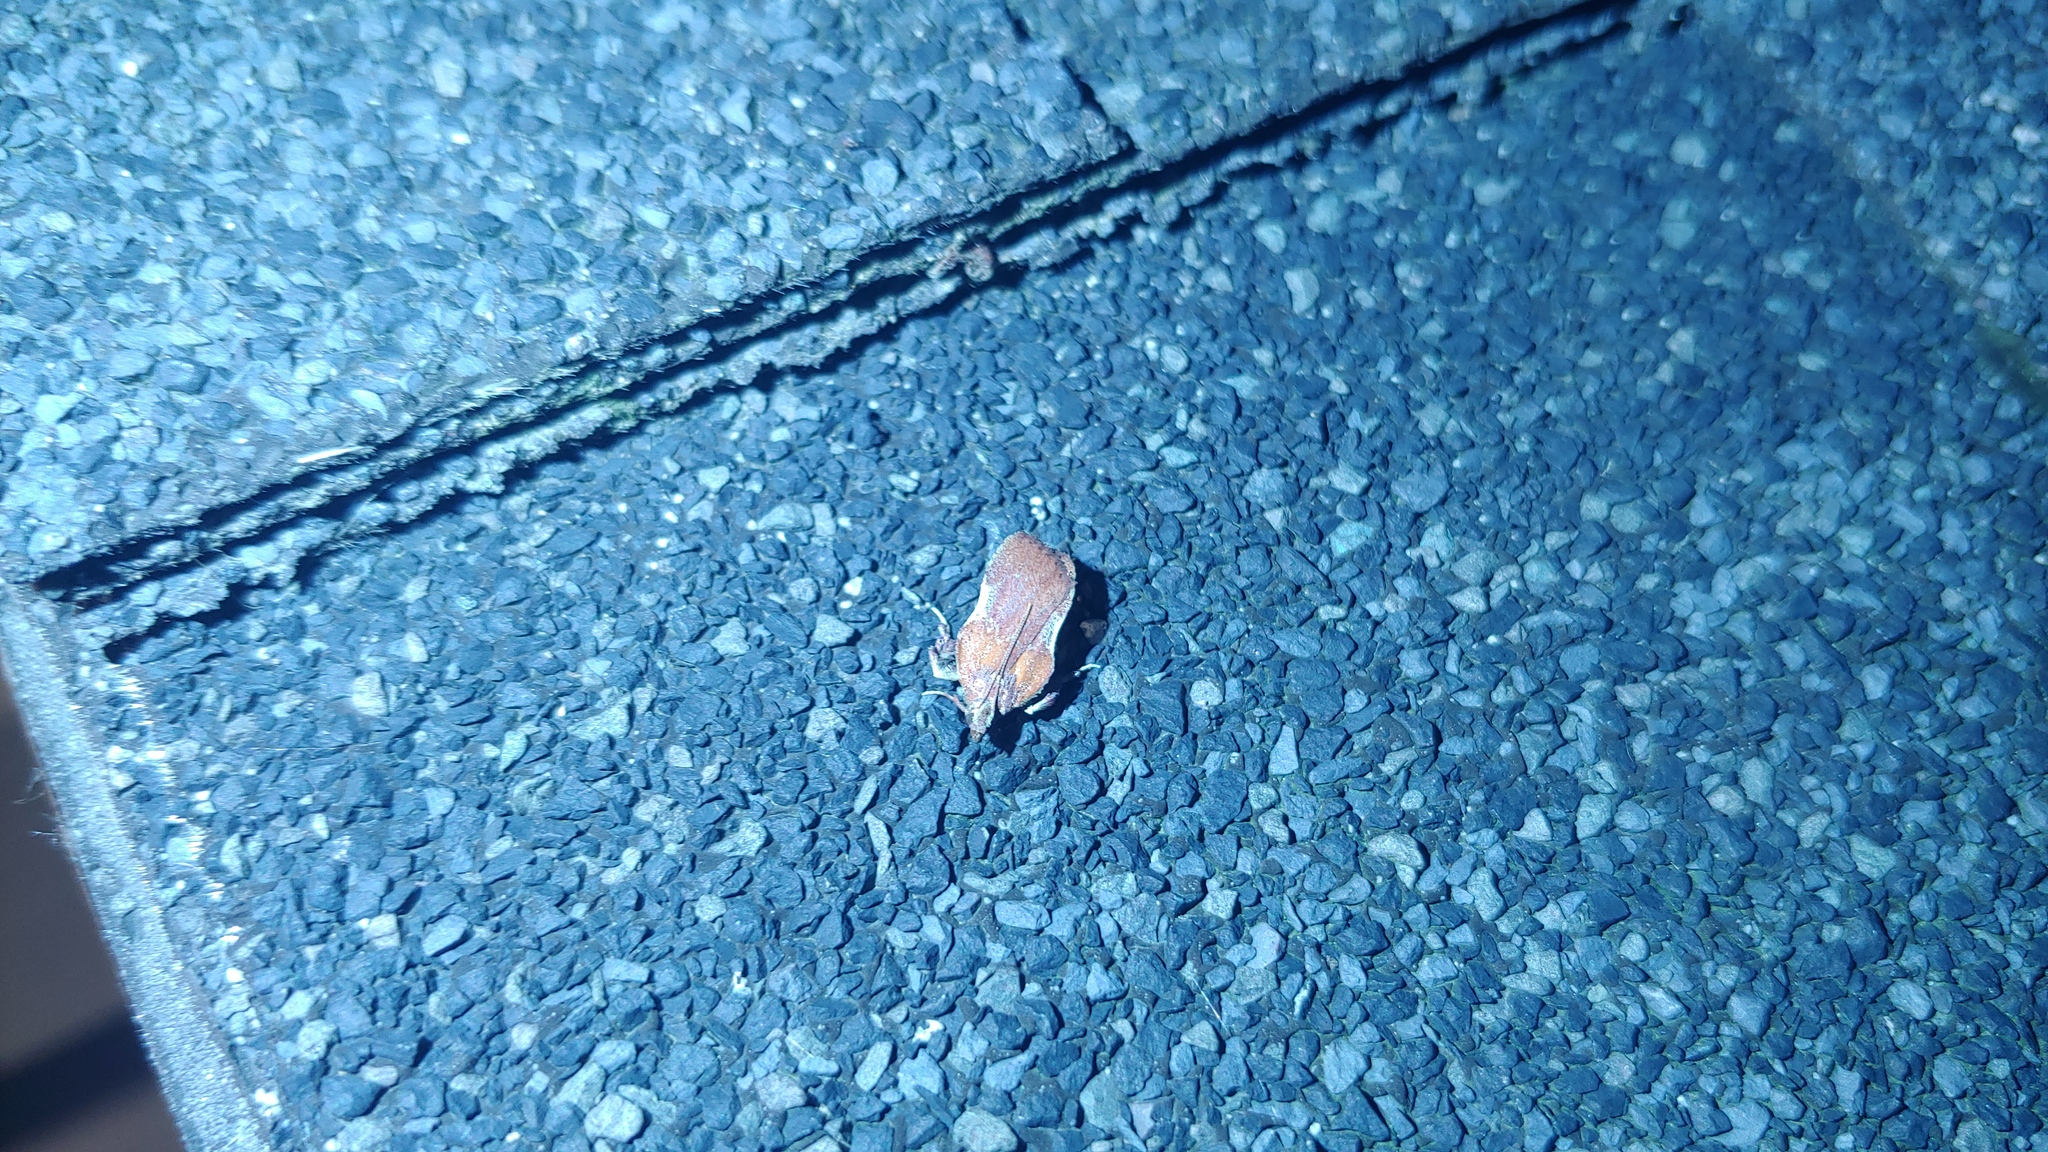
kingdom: Animalia
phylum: Arthropoda
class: Insecta
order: Lepidoptera
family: Pyralidae
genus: Galasa
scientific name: Galasa nigrinodis
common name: Boxwood leaftier moth
